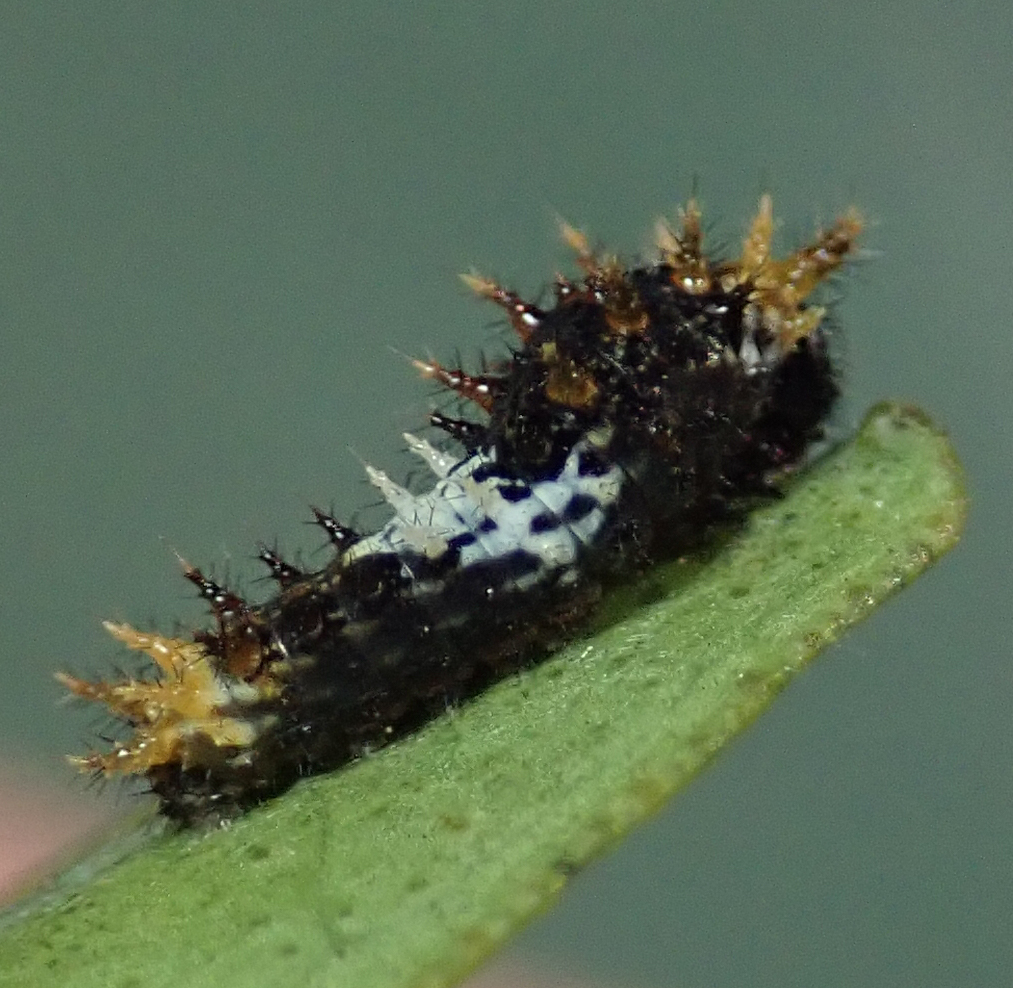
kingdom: Animalia
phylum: Arthropoda
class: Insecta
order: Lepidoptera
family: Papilionidae
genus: Papilio
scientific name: Papilio demodocus
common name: Christmas butterfly
